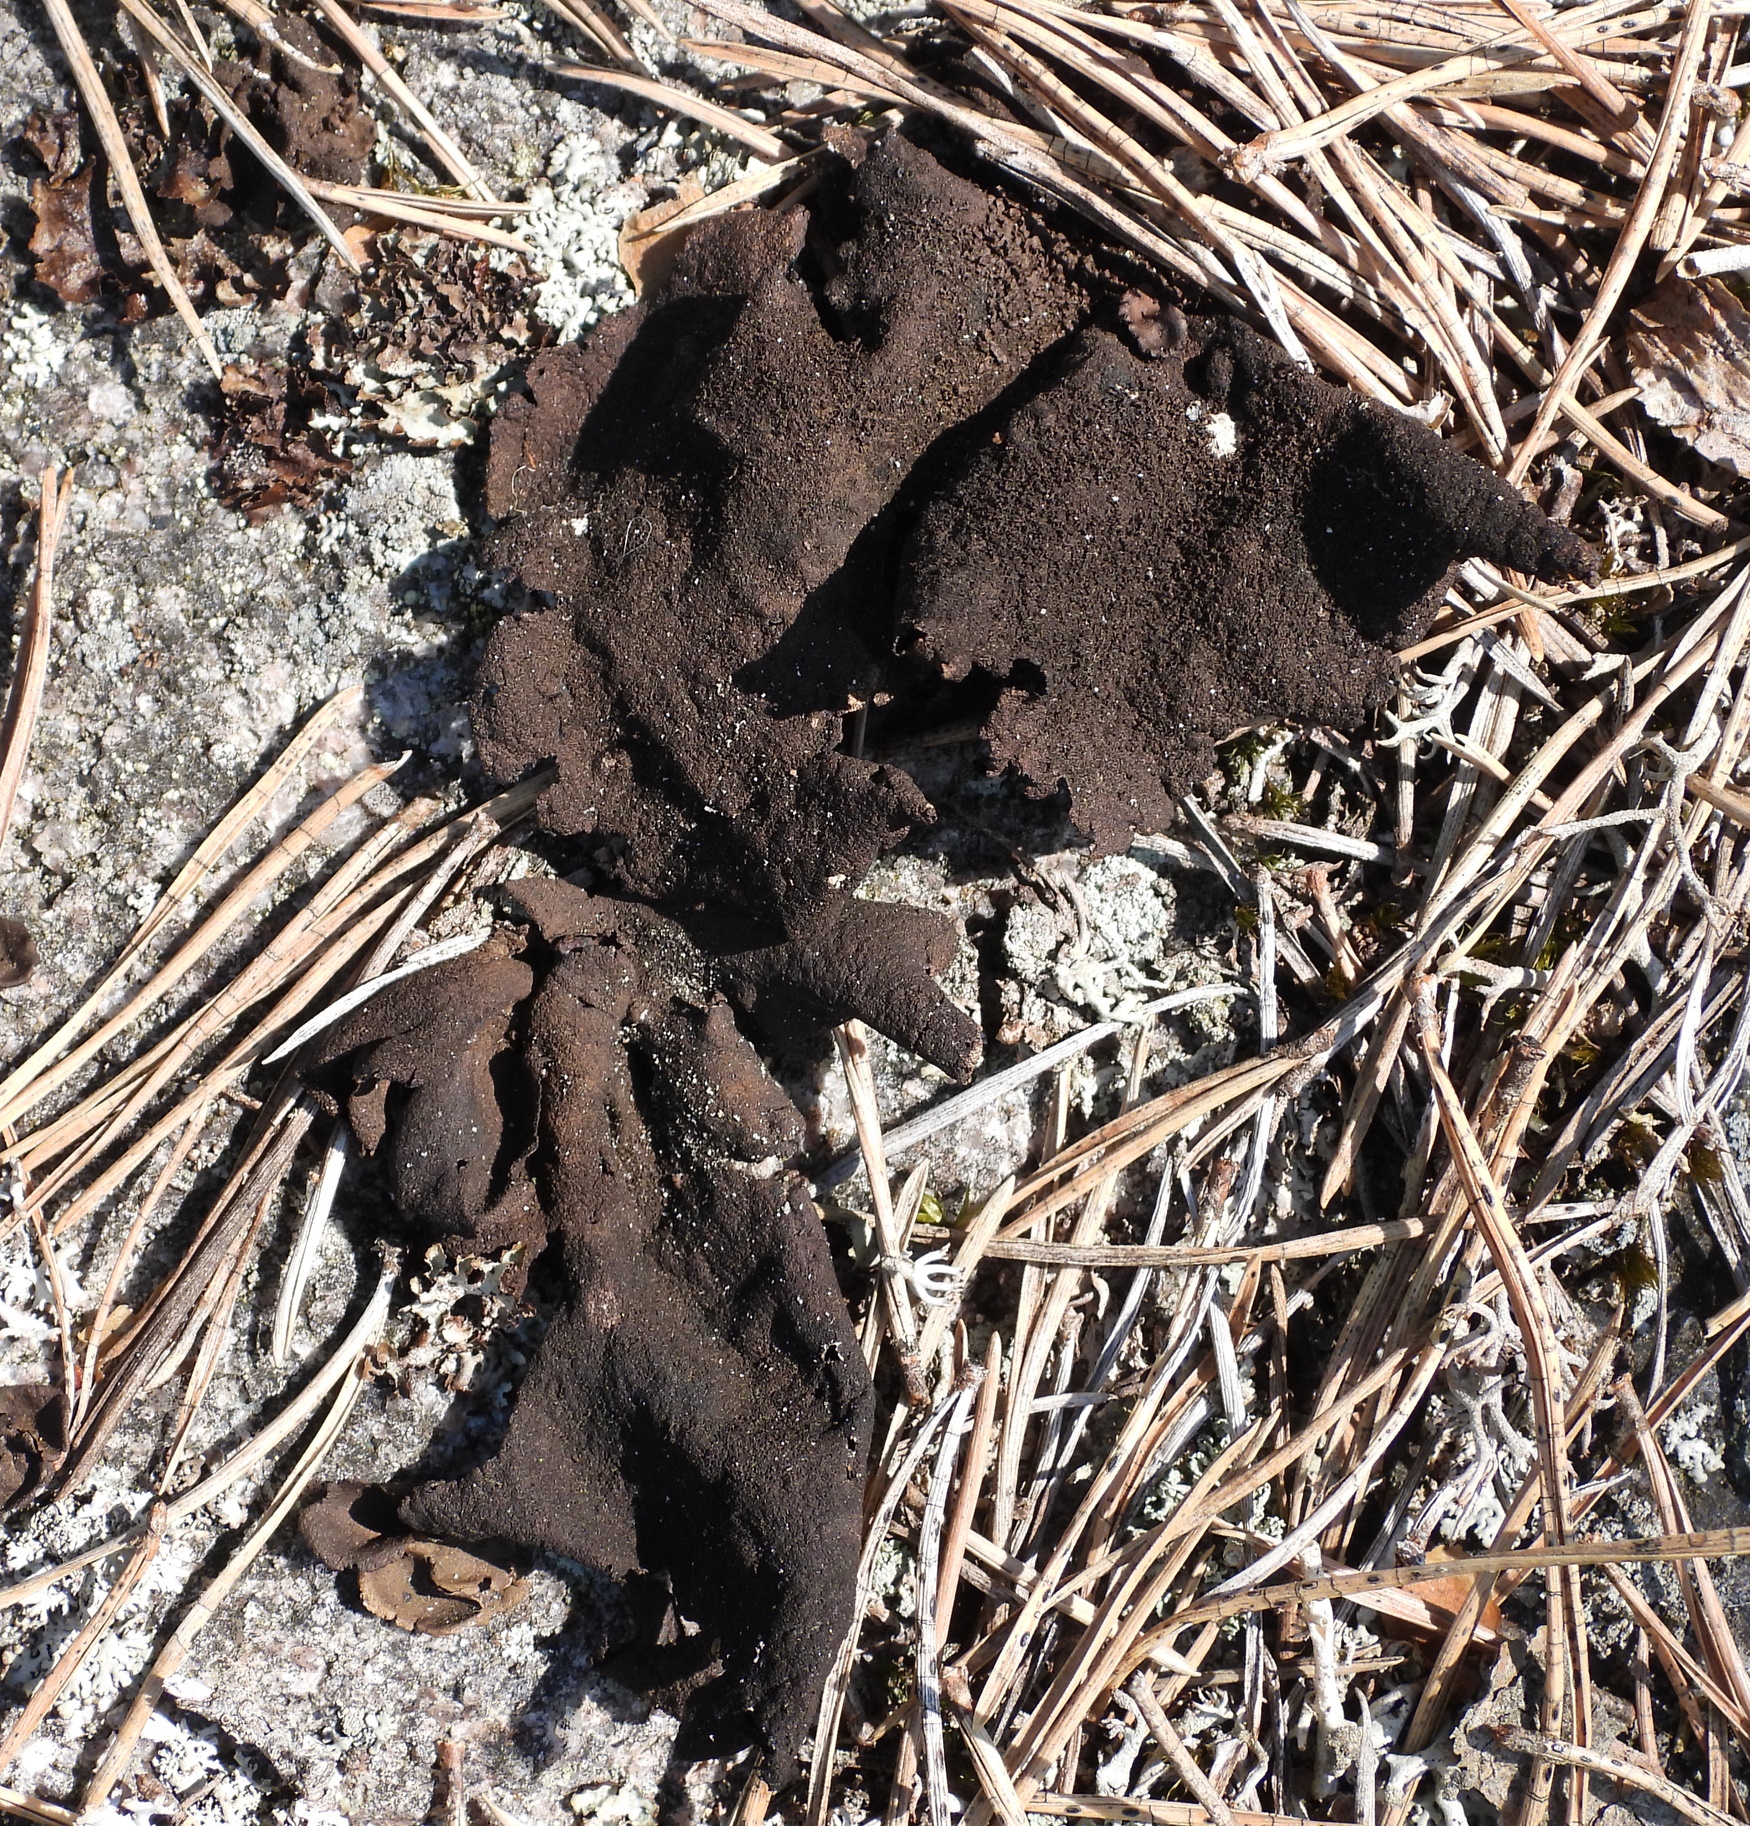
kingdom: Fungi
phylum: Ascomycota
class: Lecanoromycetes
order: Umbilicariales
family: Umbilicariaceae
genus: Umbilicaria
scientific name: Umbilicaria deusta
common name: Peppered rock tripe
